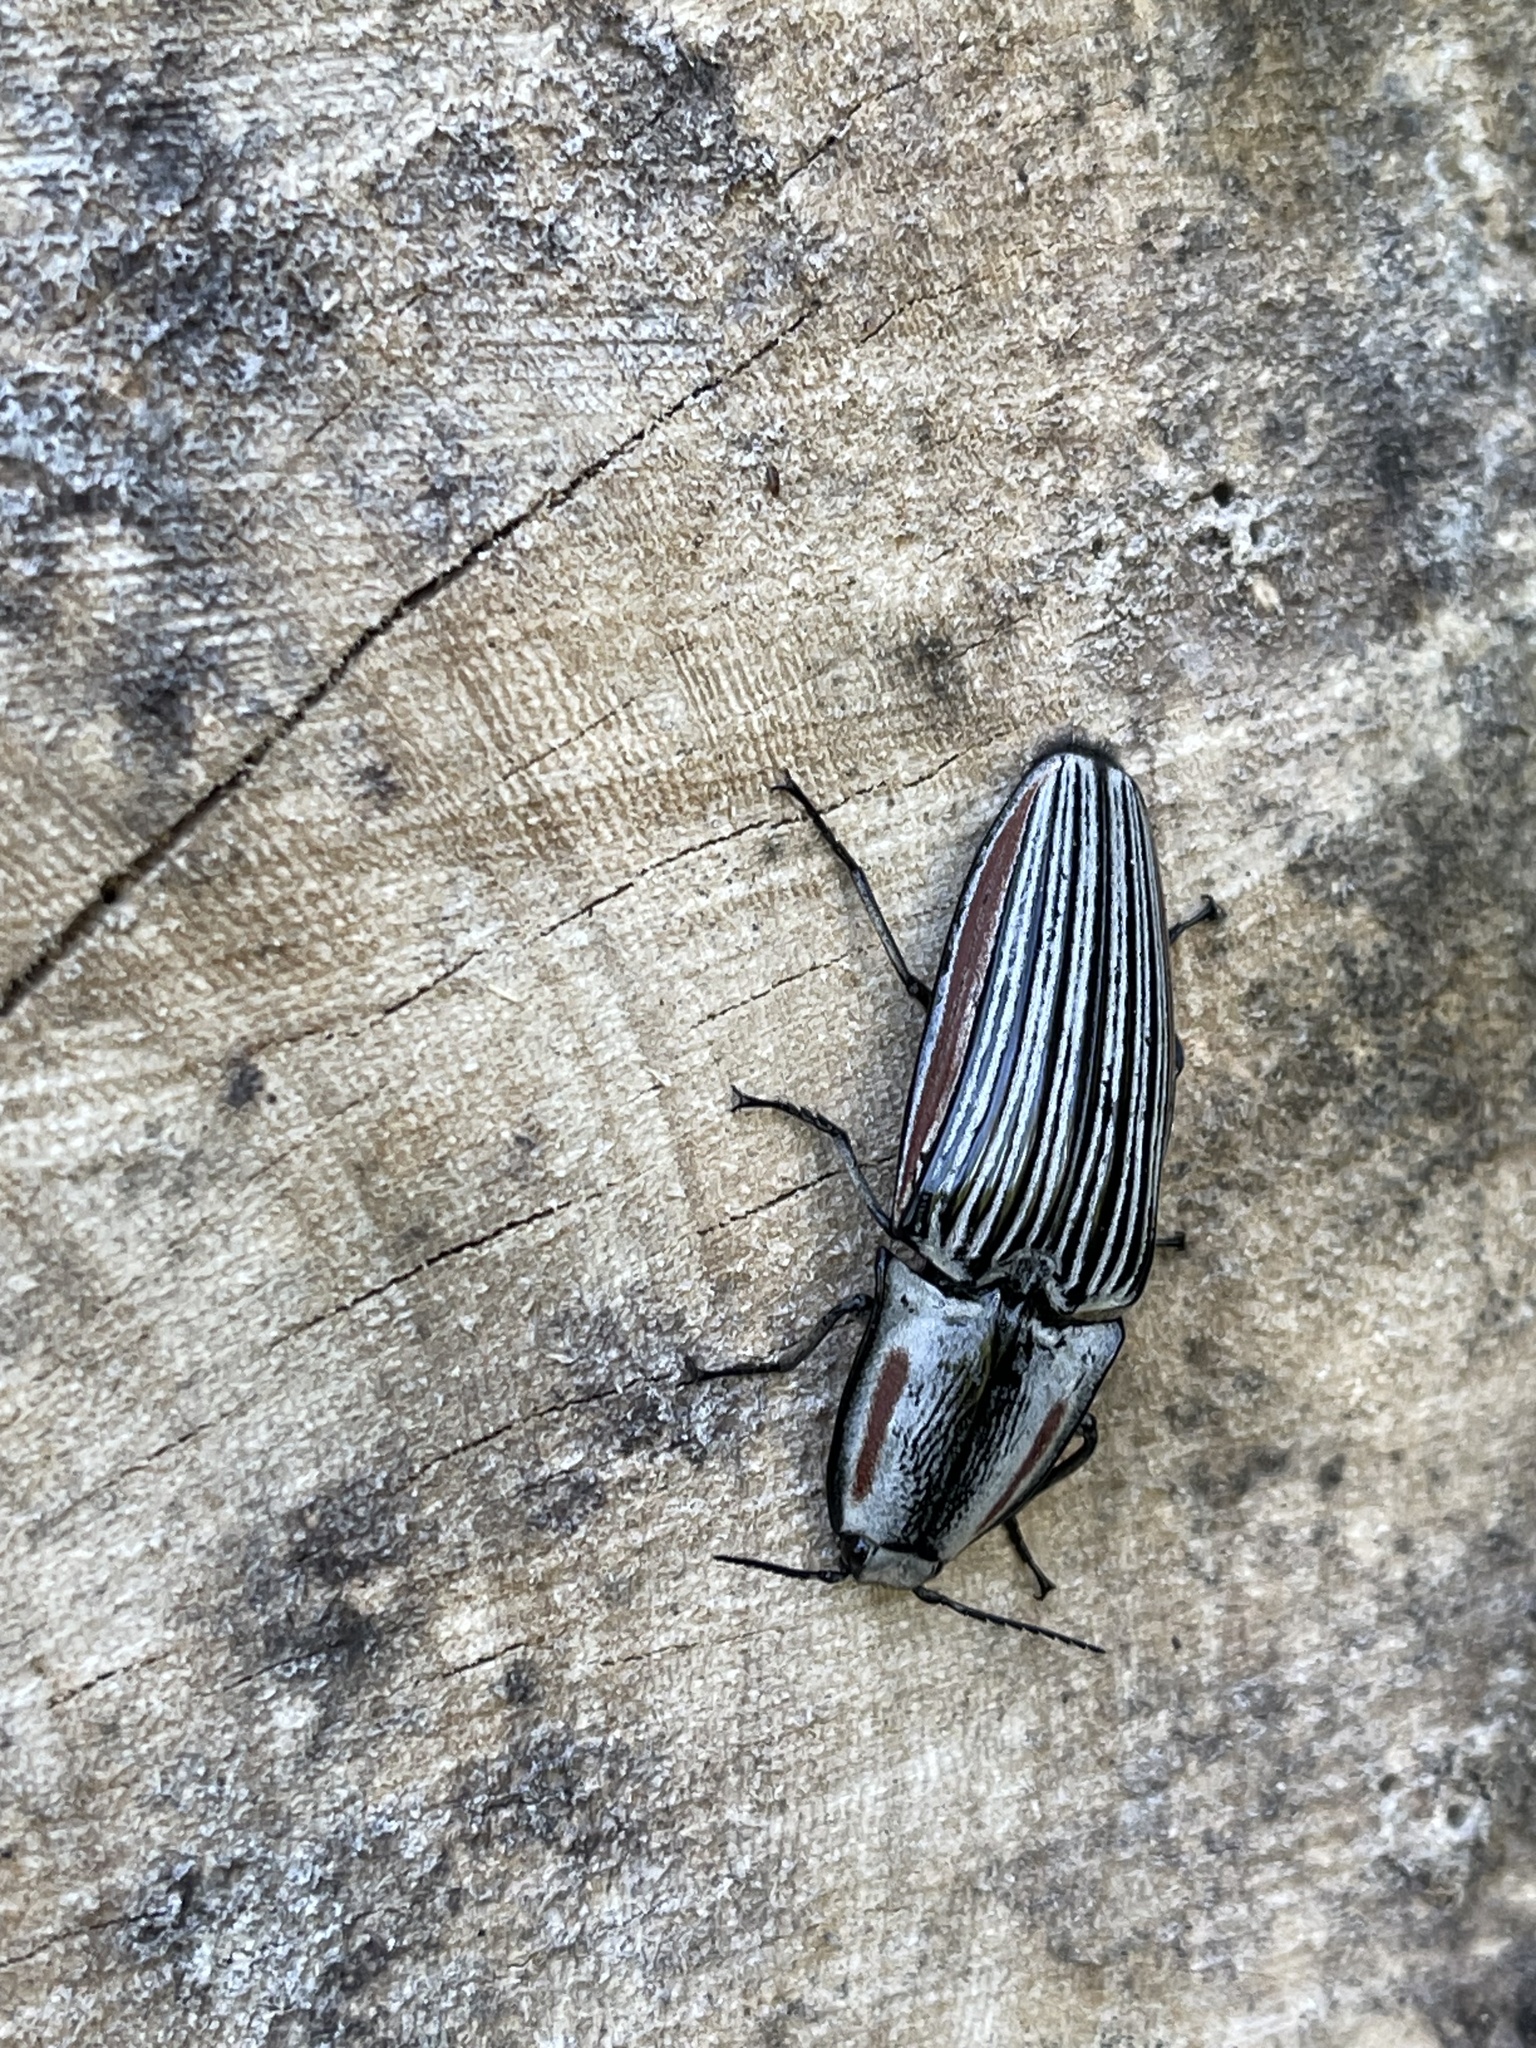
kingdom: Animalia
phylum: Arthropoda
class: Insecta
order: Coleoptera
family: Elateridae
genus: Chalcolepidius
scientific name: Chalcolepidius erythroloma
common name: Click beetle
